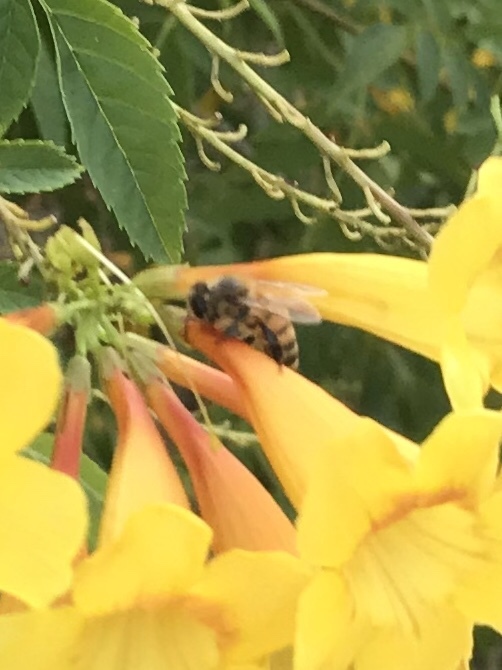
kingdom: Animalia
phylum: Arthropoda
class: Insecta
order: Hymenoptera
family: Apidae
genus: Apis
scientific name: Apis mellifera
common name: Honey bee
